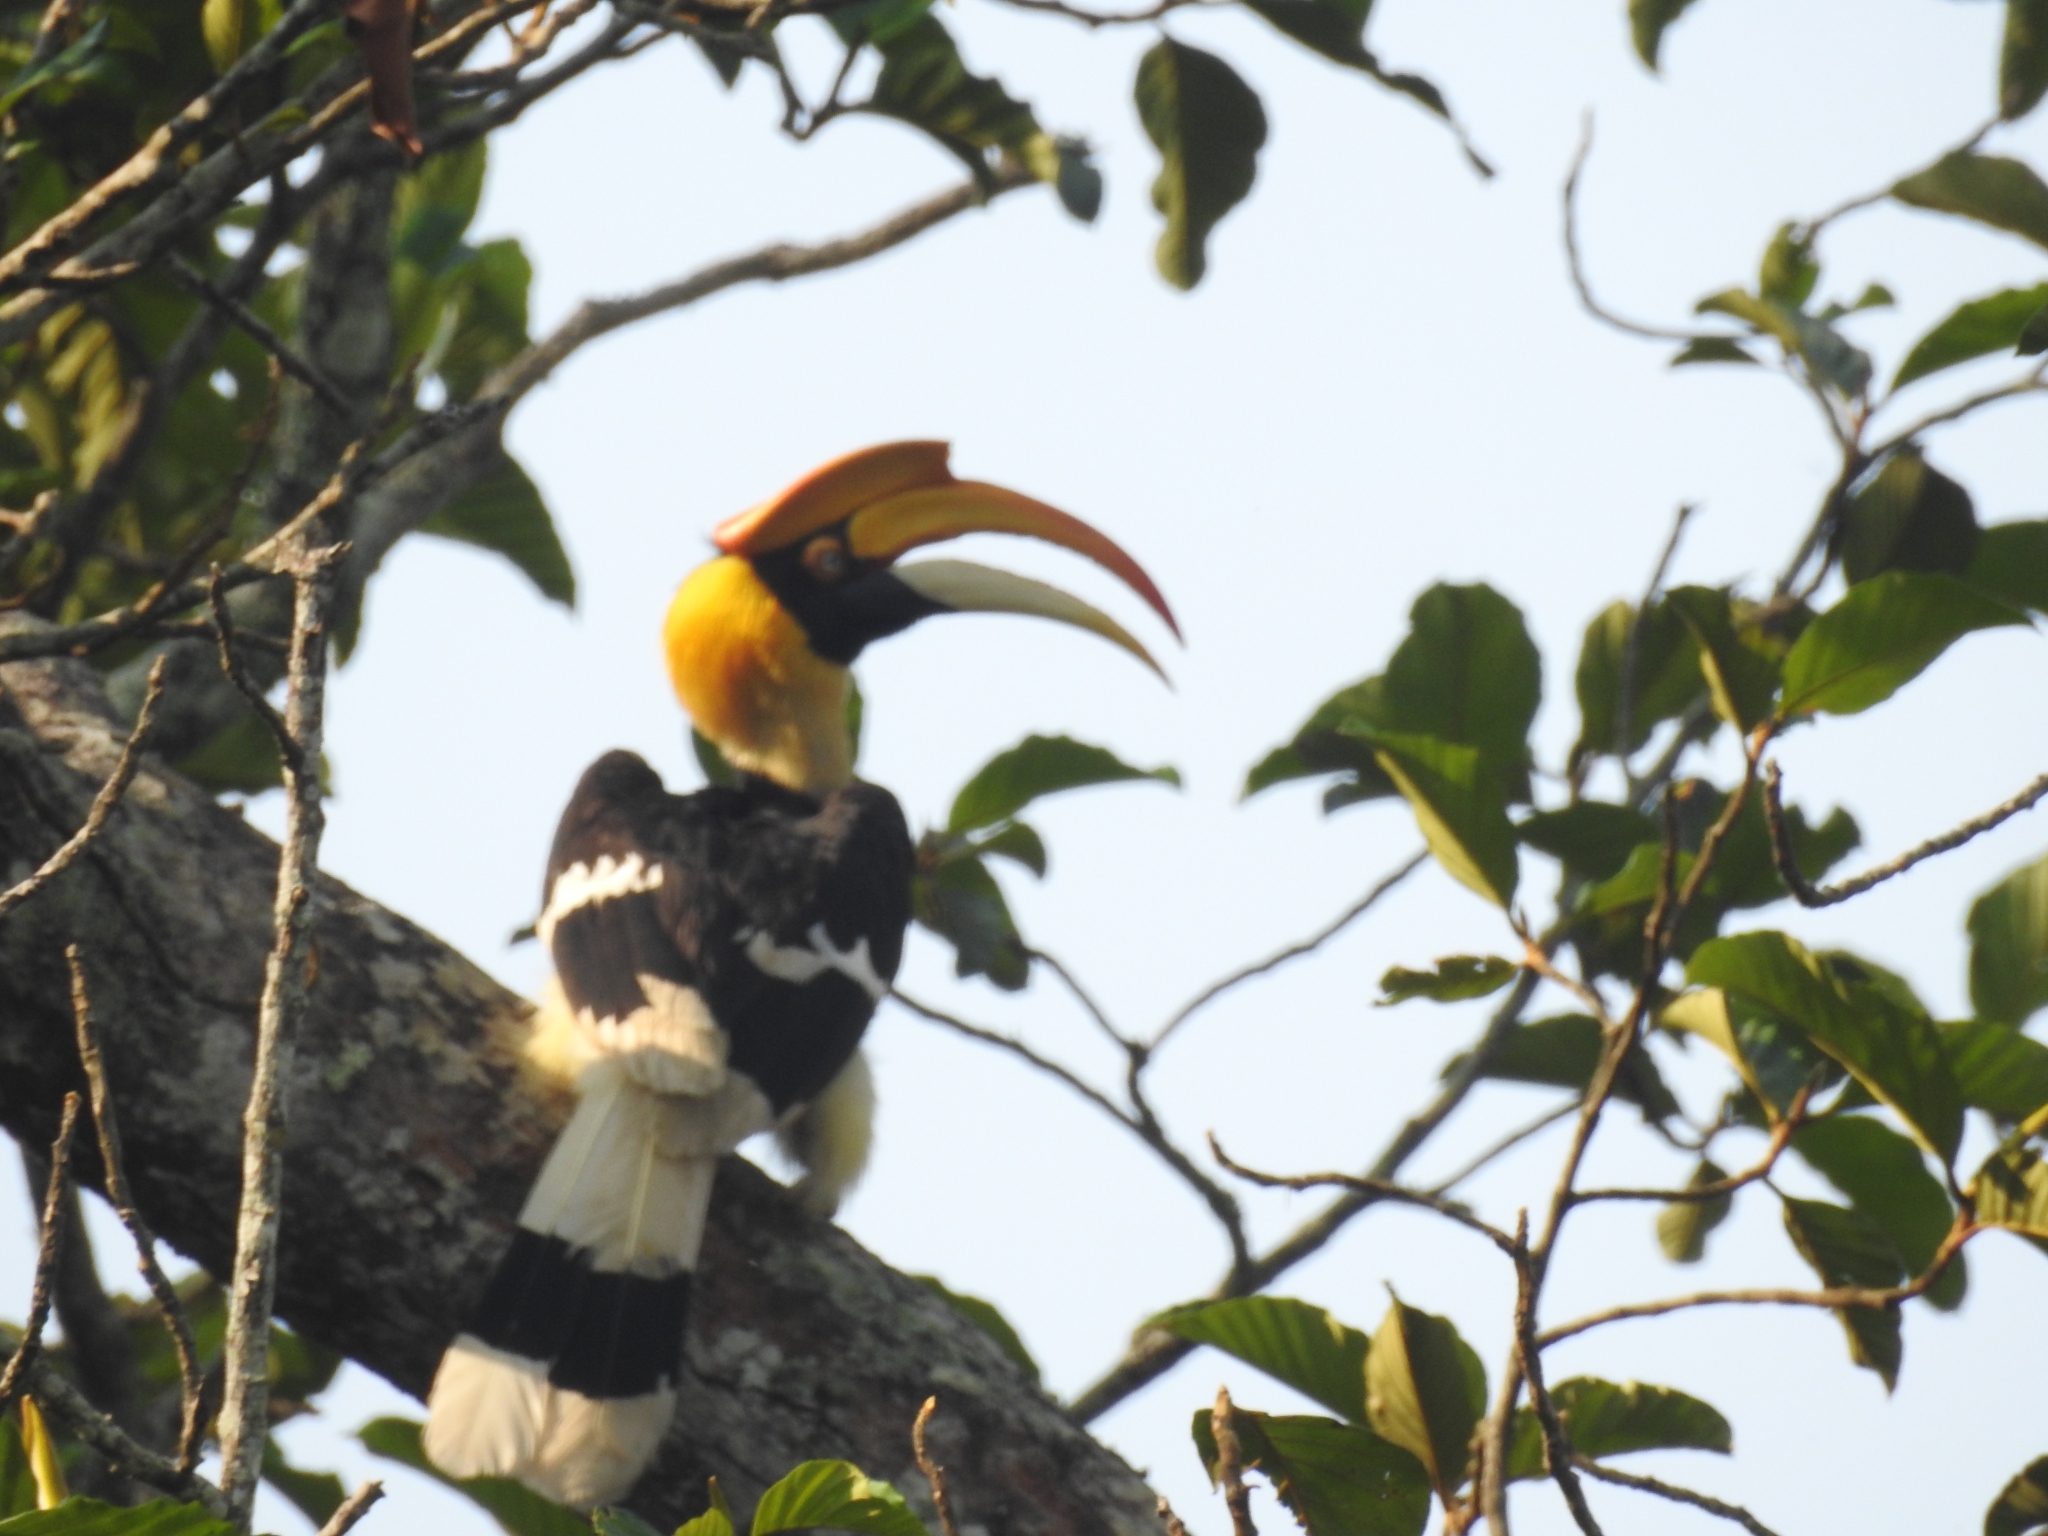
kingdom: Animalia
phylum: Chordata
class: Aves
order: Bucerotiformes
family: Bucerotidae
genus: Buceros
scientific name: Buceros bicornis
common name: Great hornbill
